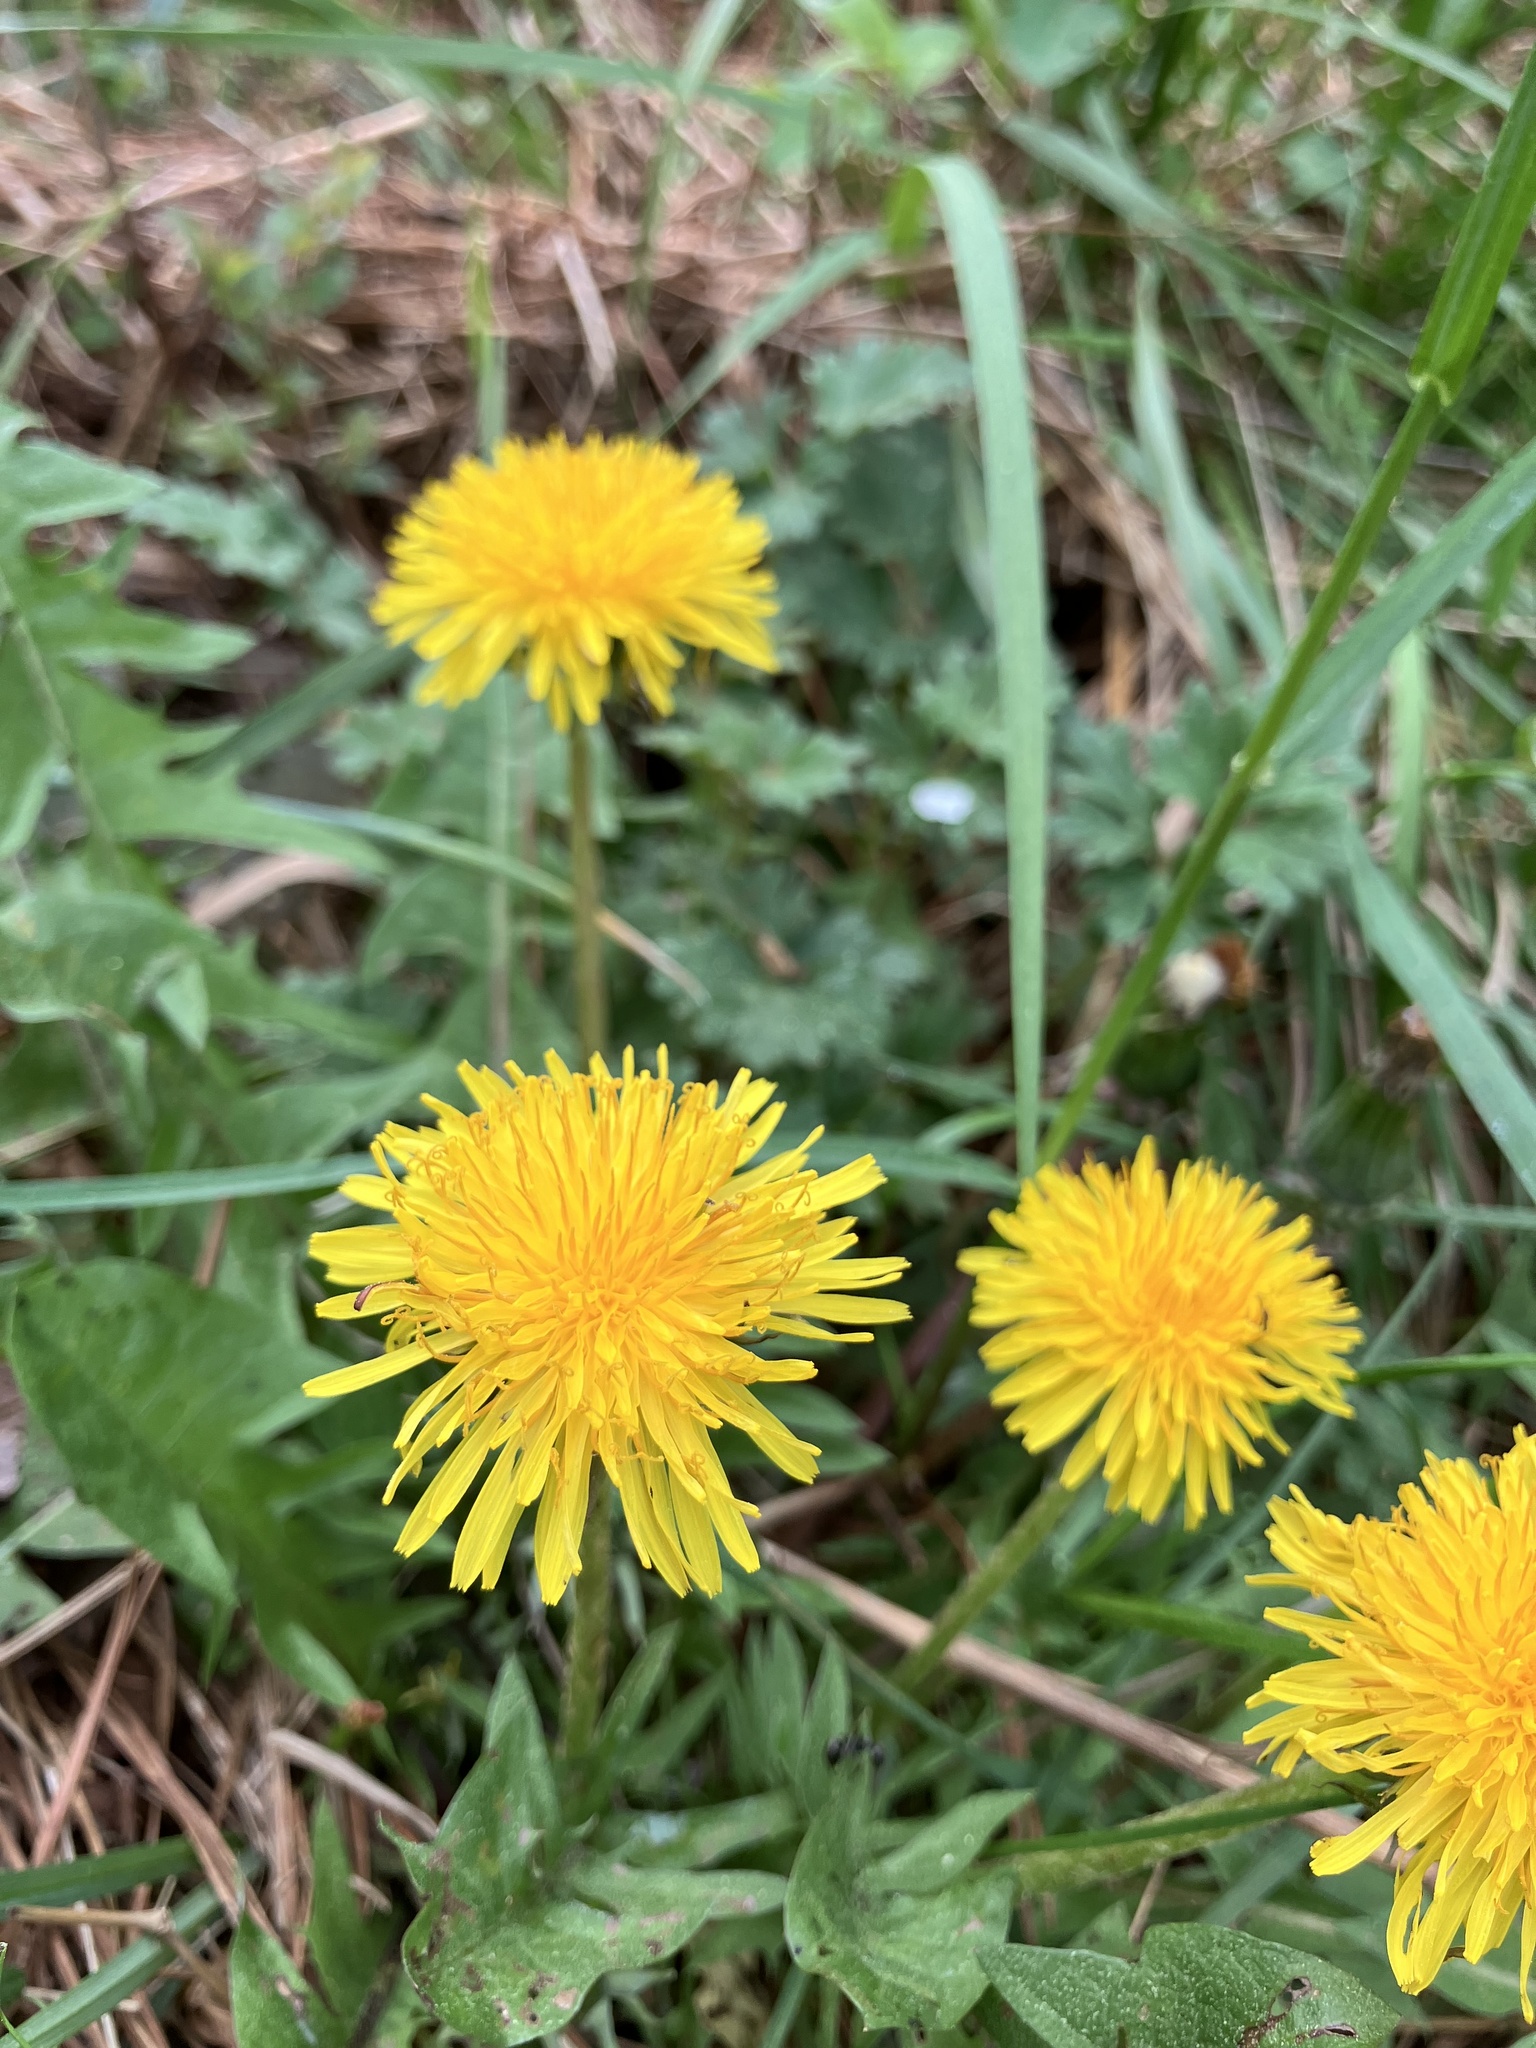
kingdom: Plantae
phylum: Tracheophyta
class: Magnoliopsida
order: Asterales
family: Asteraceae
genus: Taraxacum
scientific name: Taraxacum
